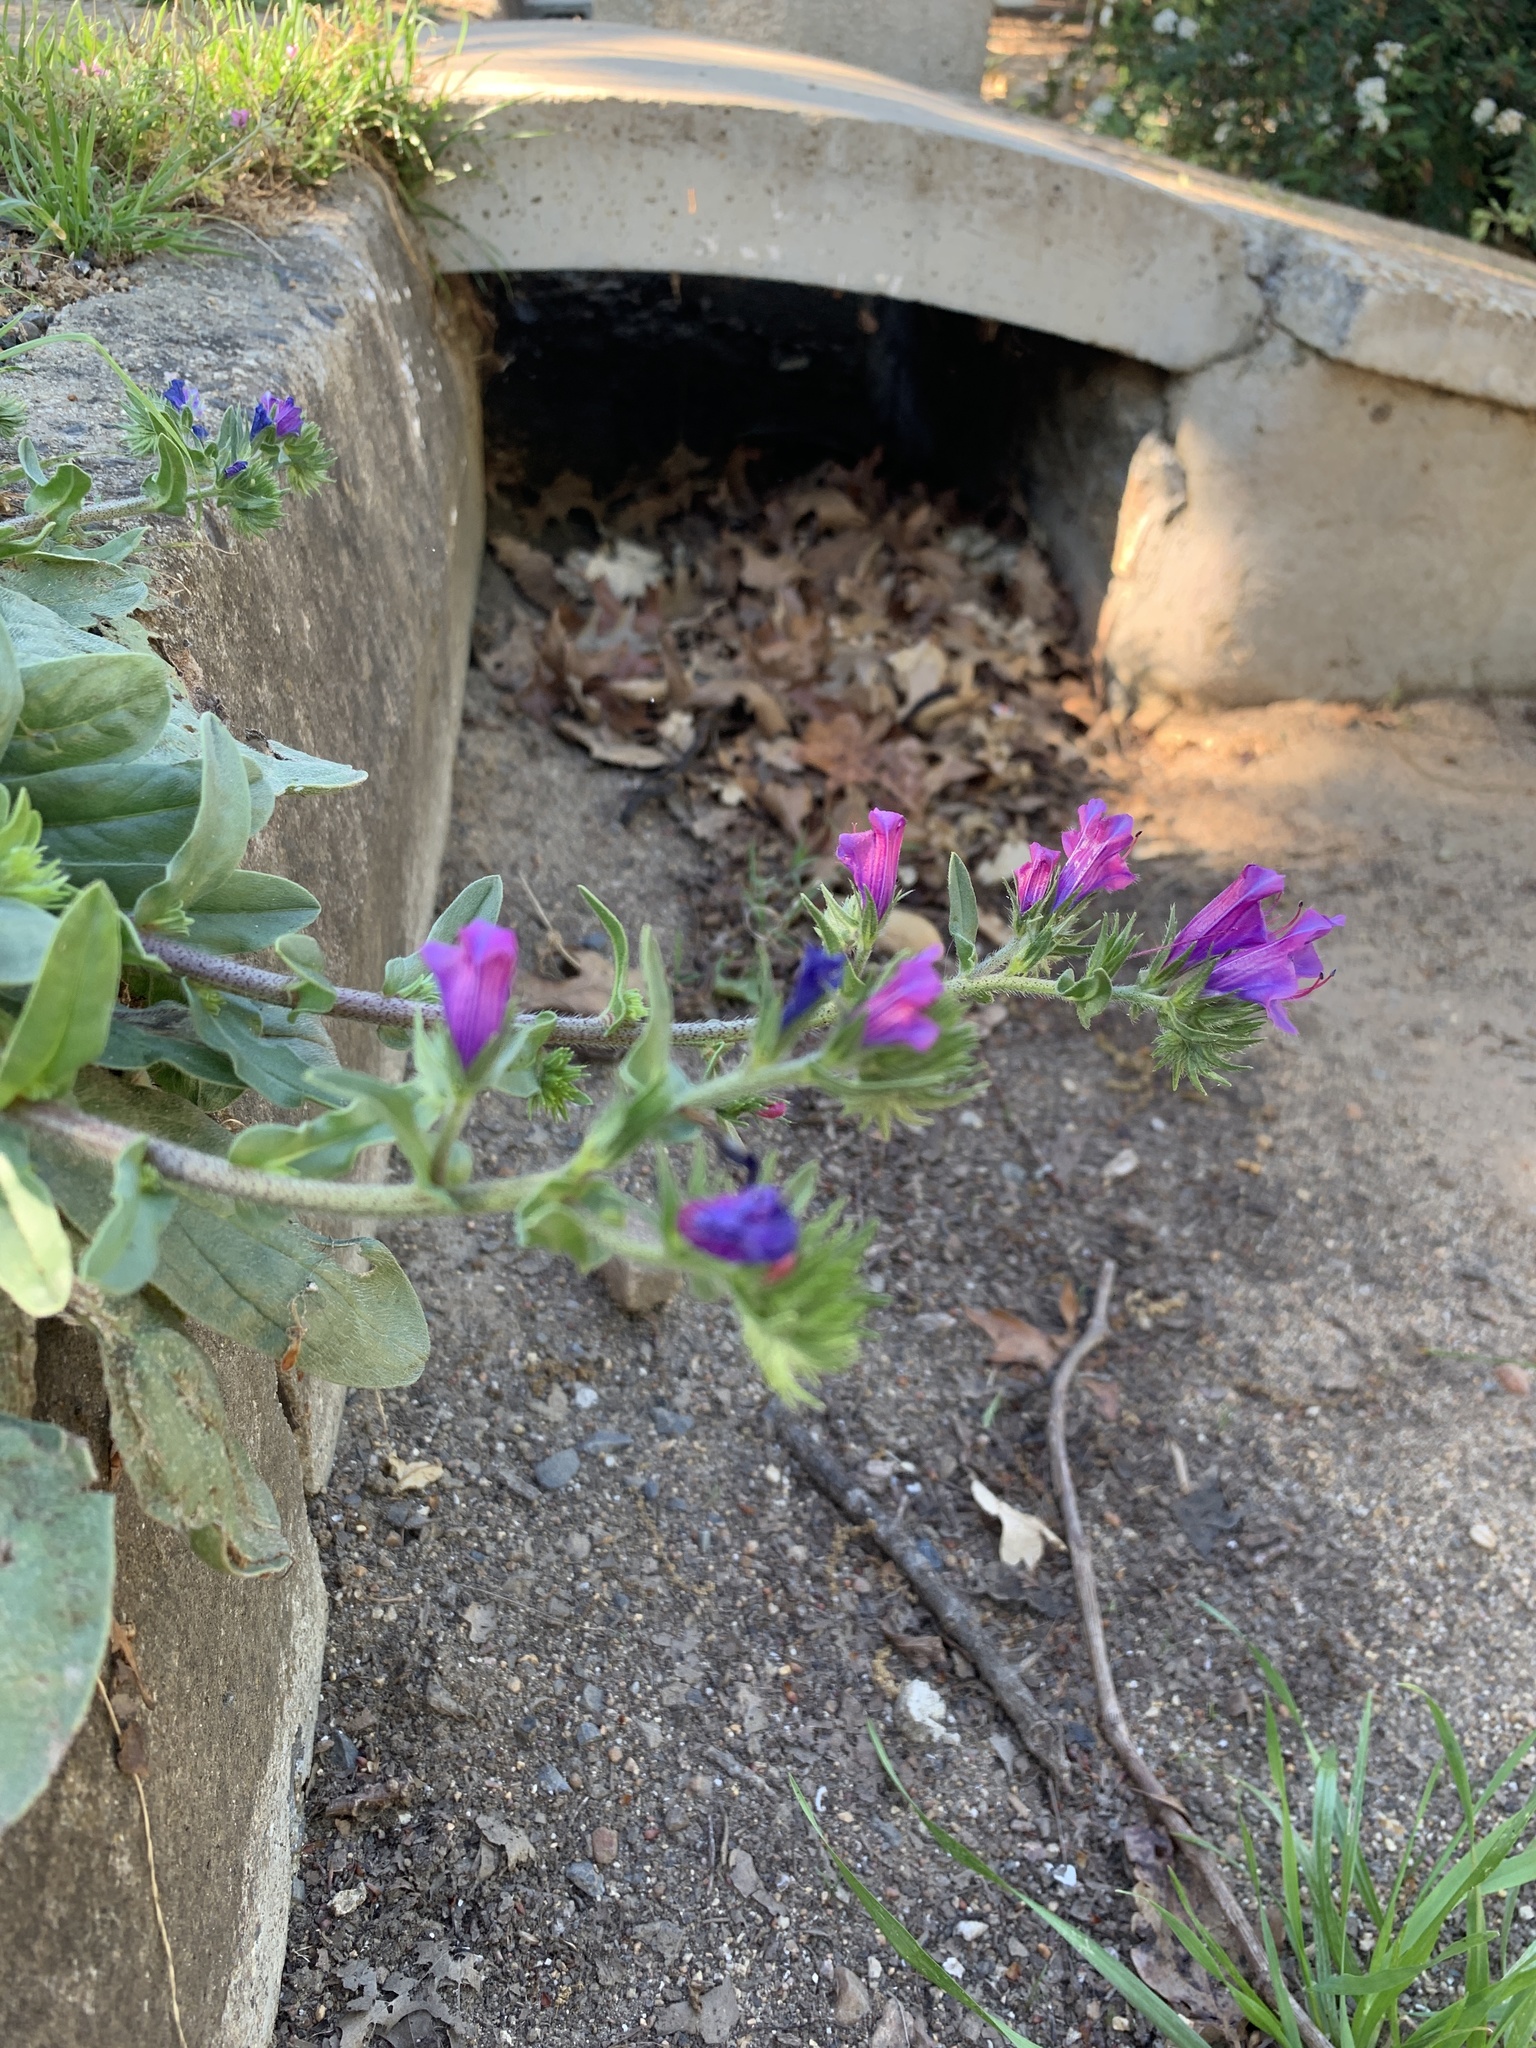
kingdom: Plantae
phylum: Tracheophyta
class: Magnoliopsida
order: Boraginales
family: Boraginaceae
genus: Echium
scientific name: Echium plantagineum
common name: Purple viper's-bugloss
